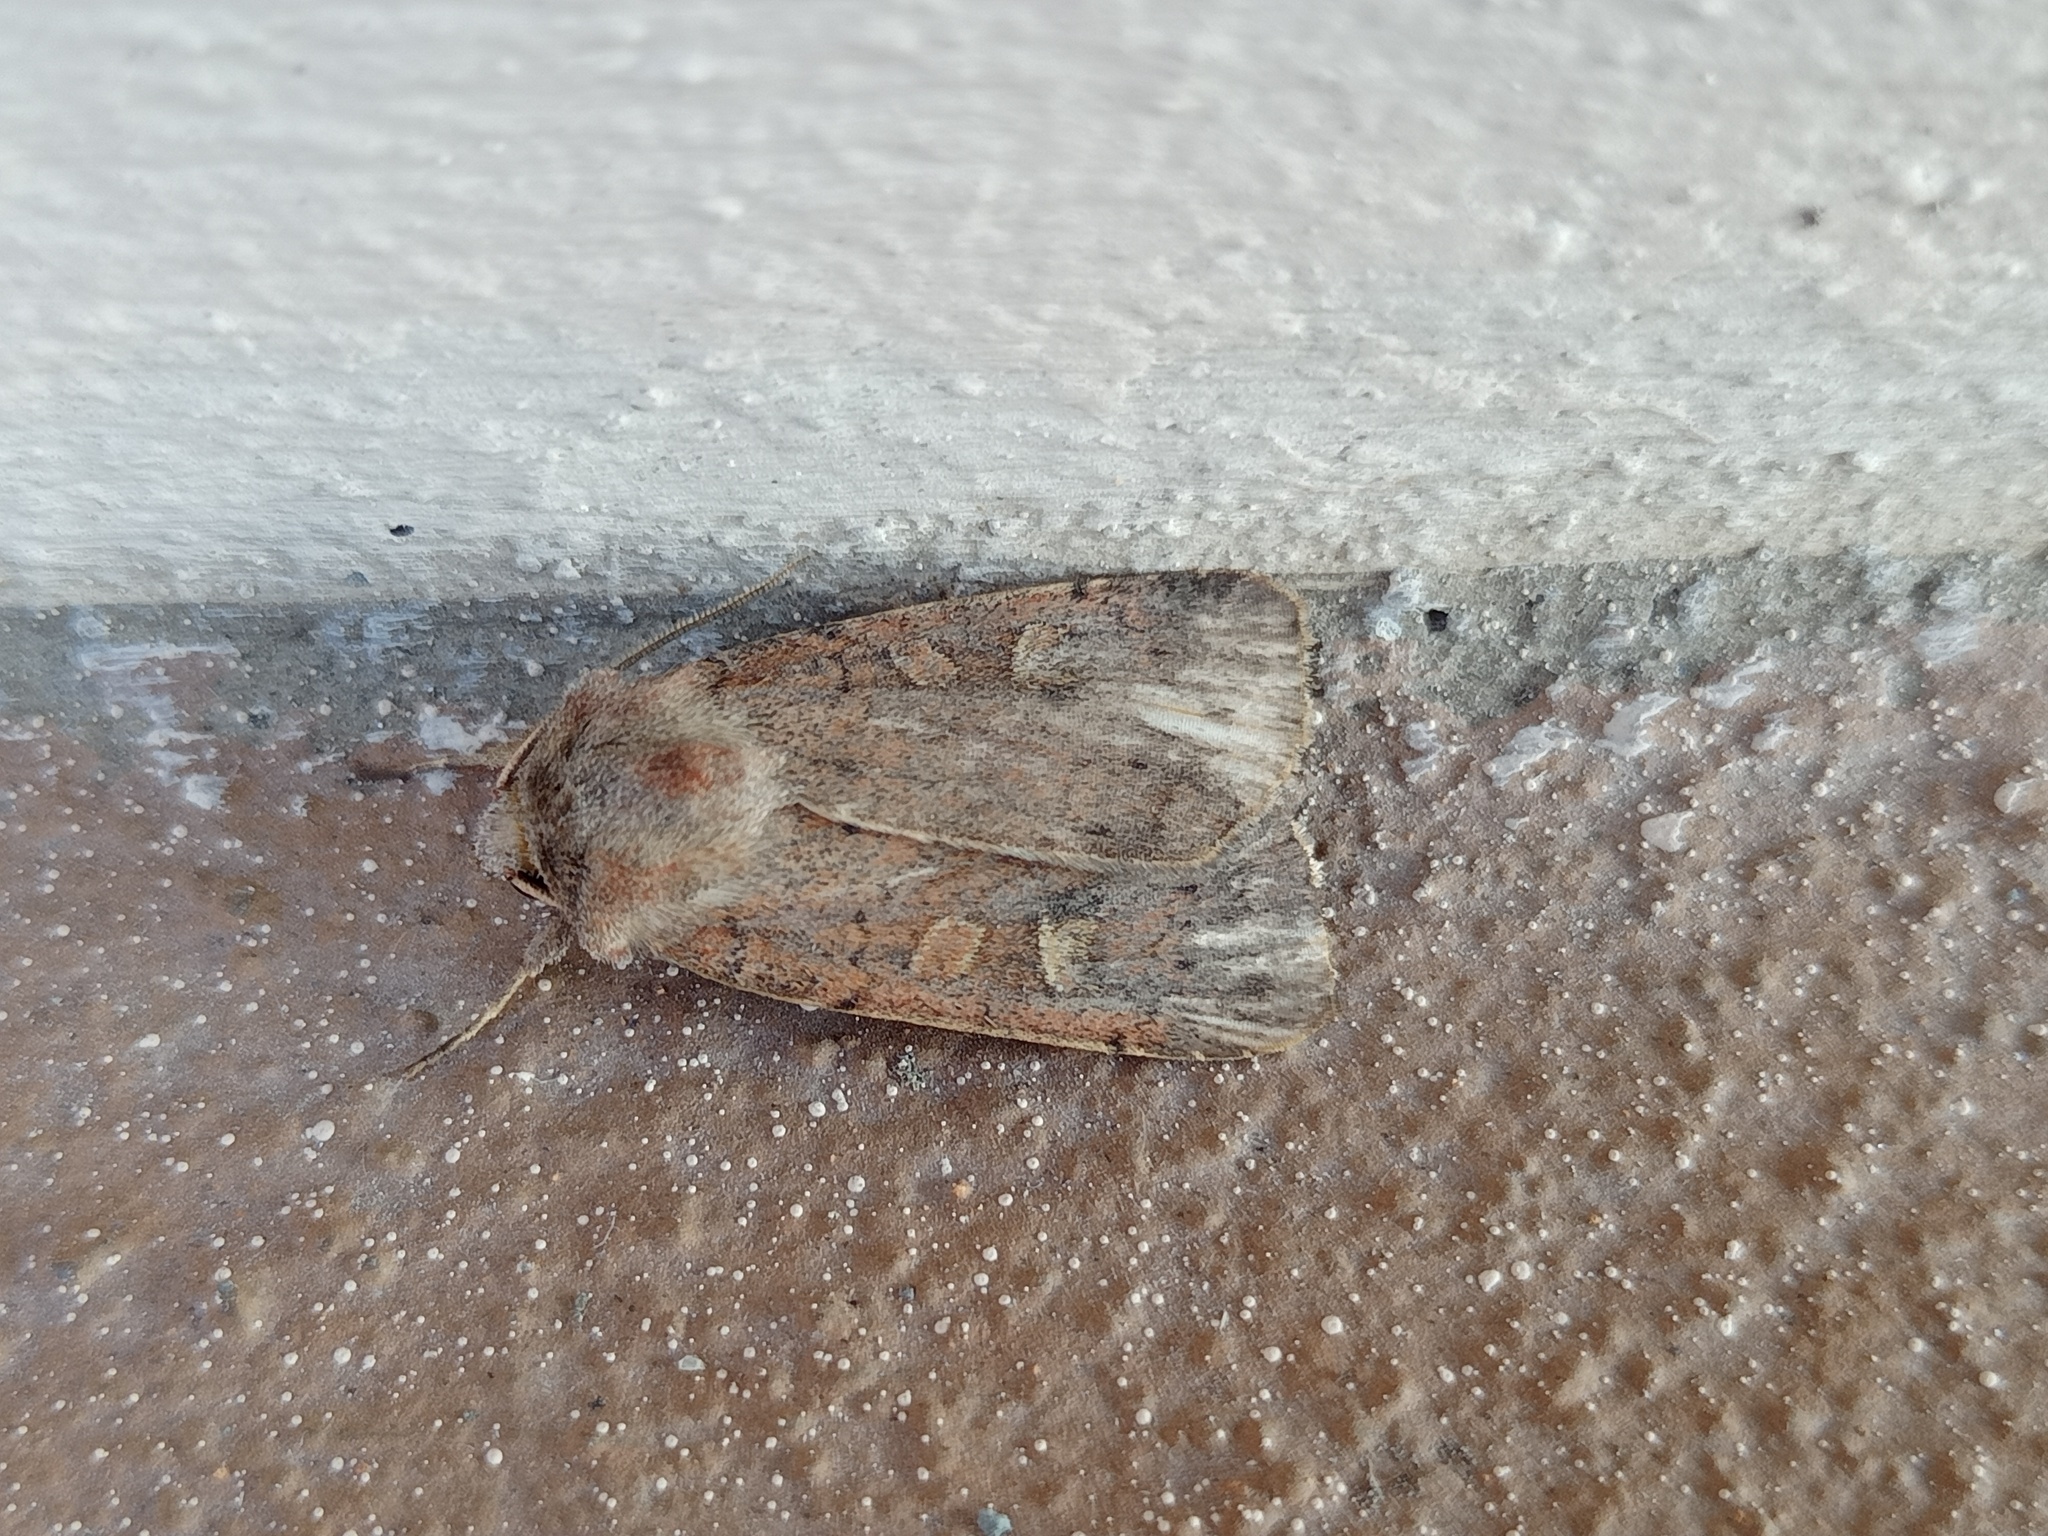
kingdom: Animalia
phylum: Arthropoda
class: Insecta
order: Lepidoptera
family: Noctuidae
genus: Xestia
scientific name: Xestia xanthographa
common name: Square-spot rustic
